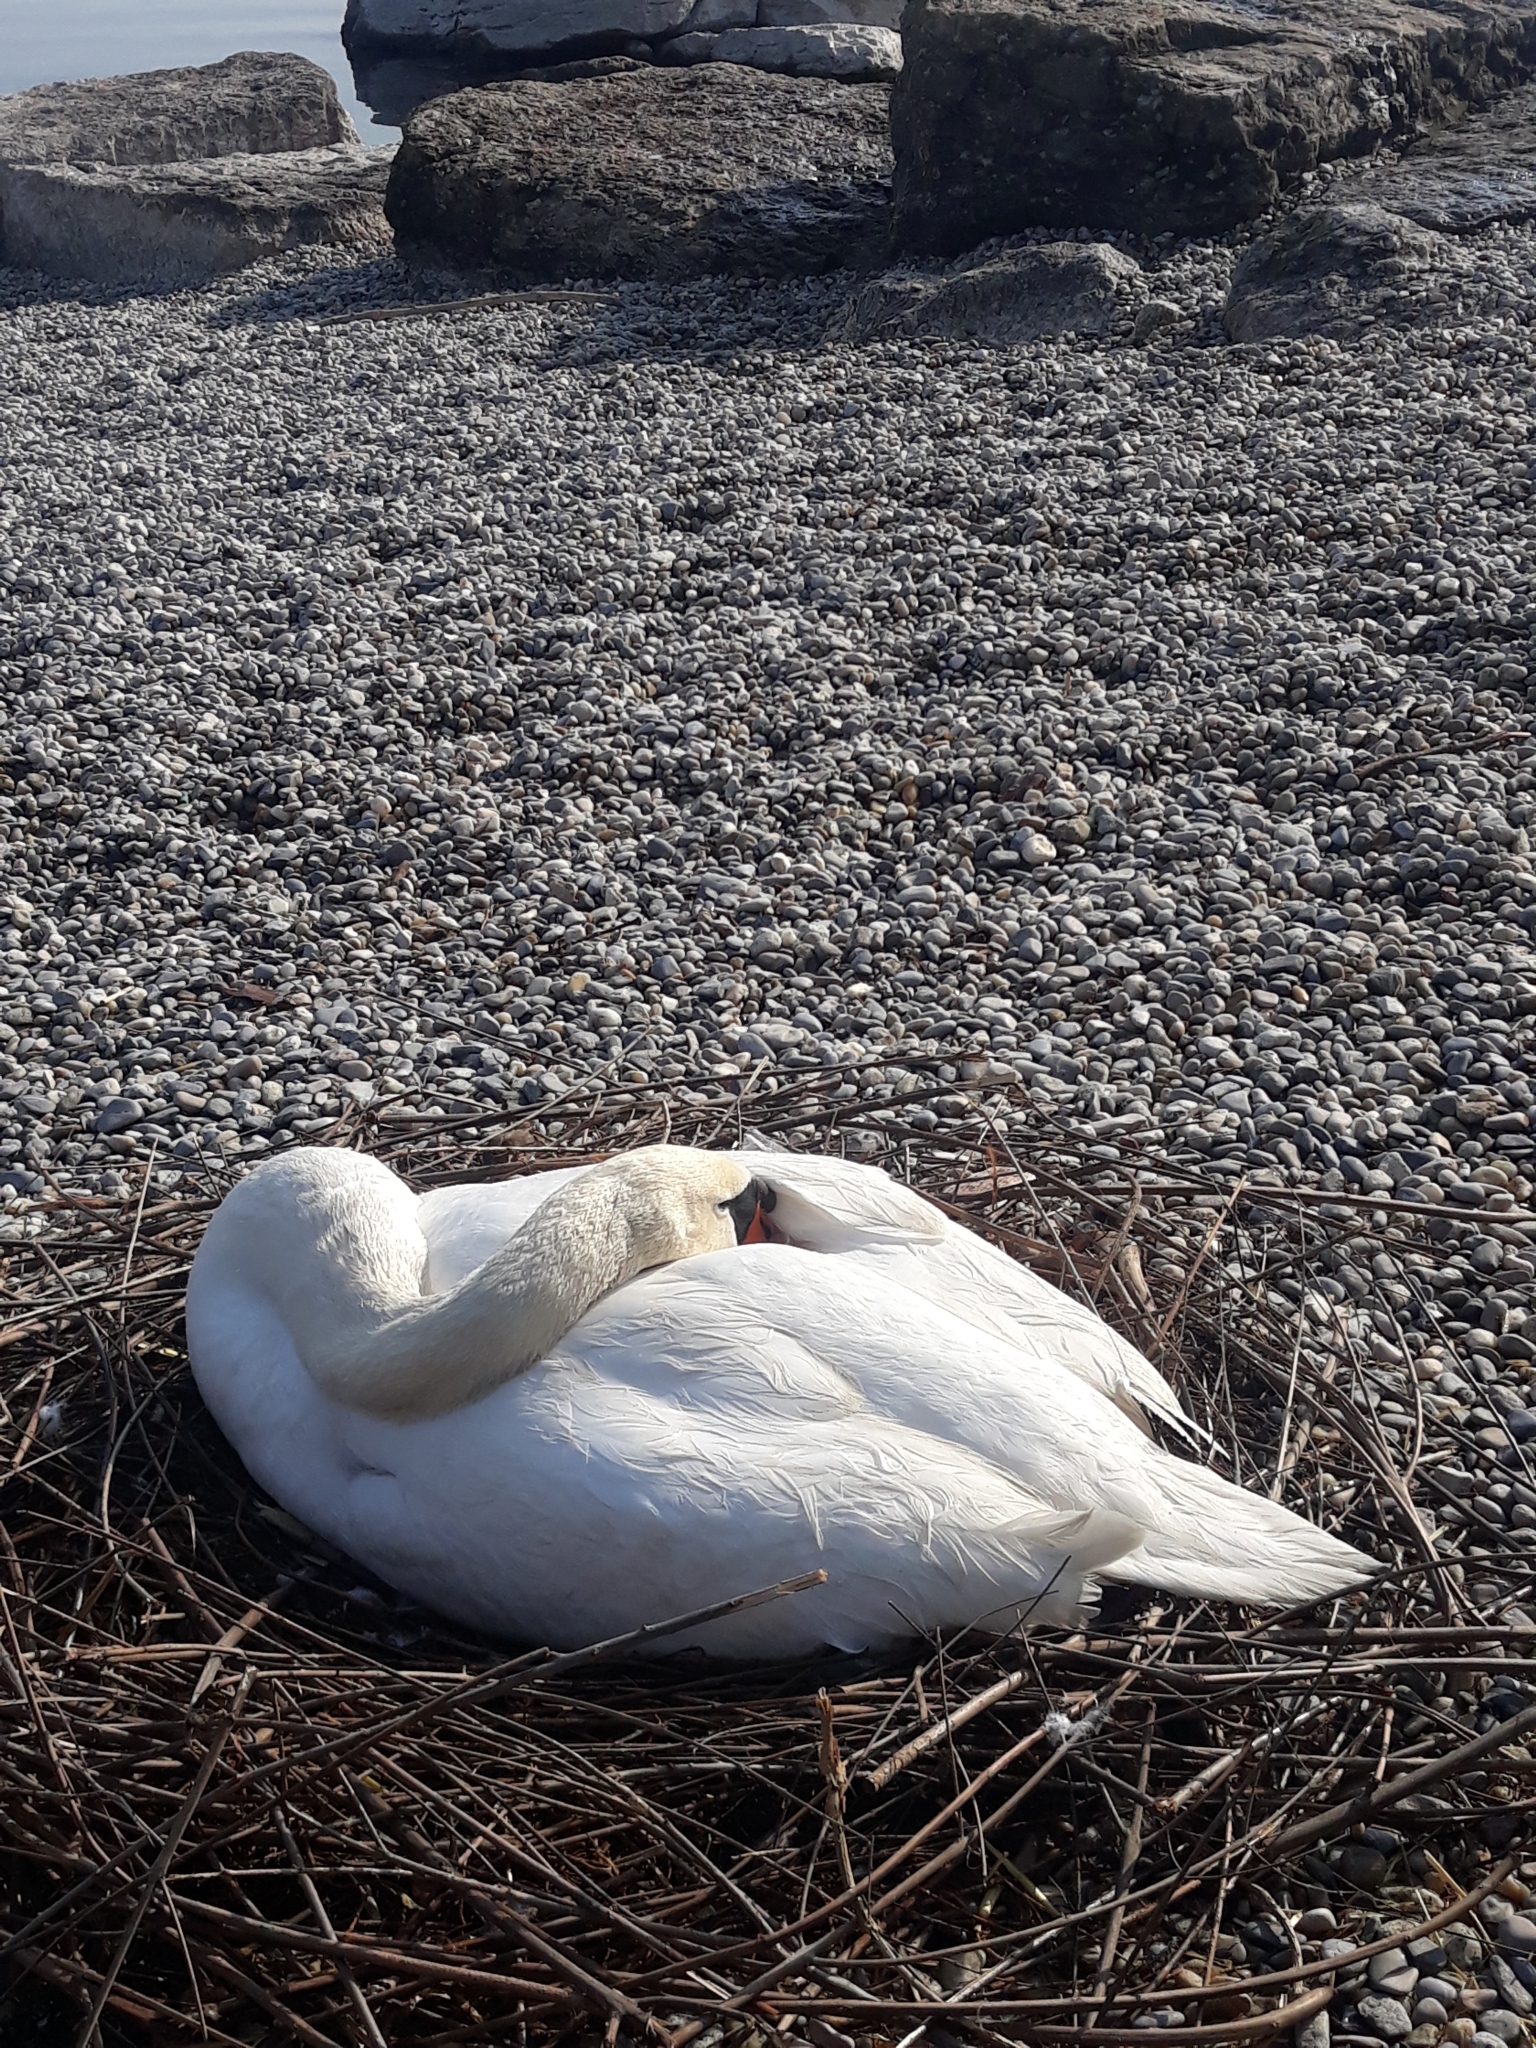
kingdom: Animalia
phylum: Chordata
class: Aves
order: Anseriformes
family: Anatidae
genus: Cygnus
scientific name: Cygnus olor
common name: Mute swan
